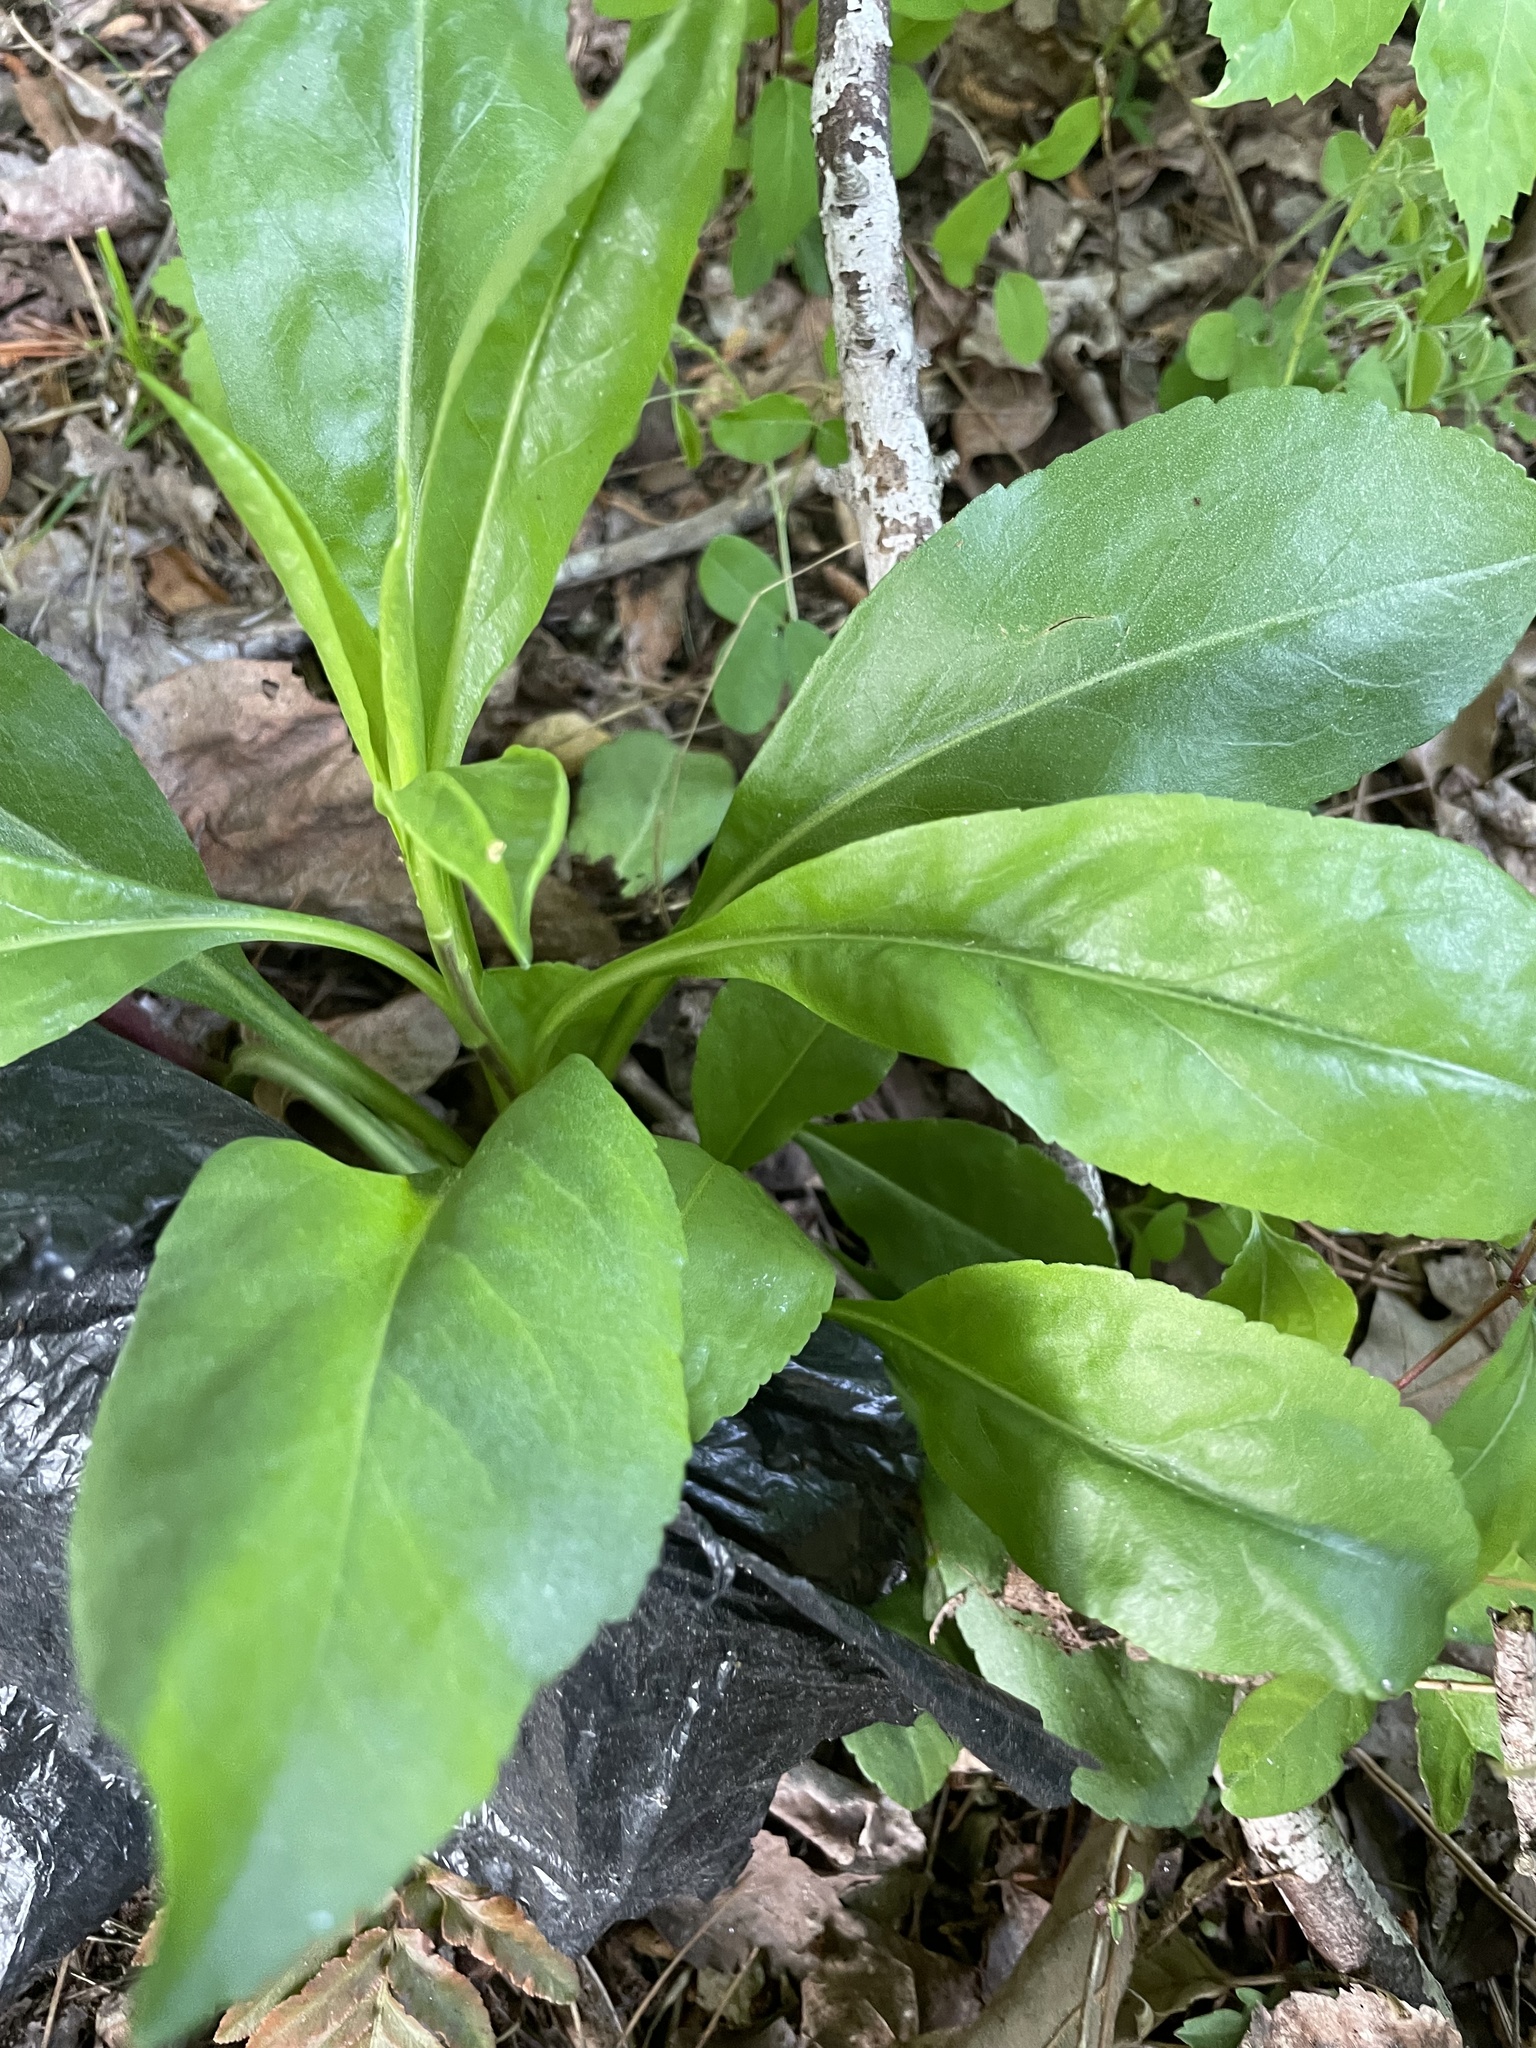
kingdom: Plantae
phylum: Tracheophyta
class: Magnoliopsida
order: Asterales
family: Asteraceae
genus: Solidago
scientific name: Solidago speciosa
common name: Showy goldenrod
